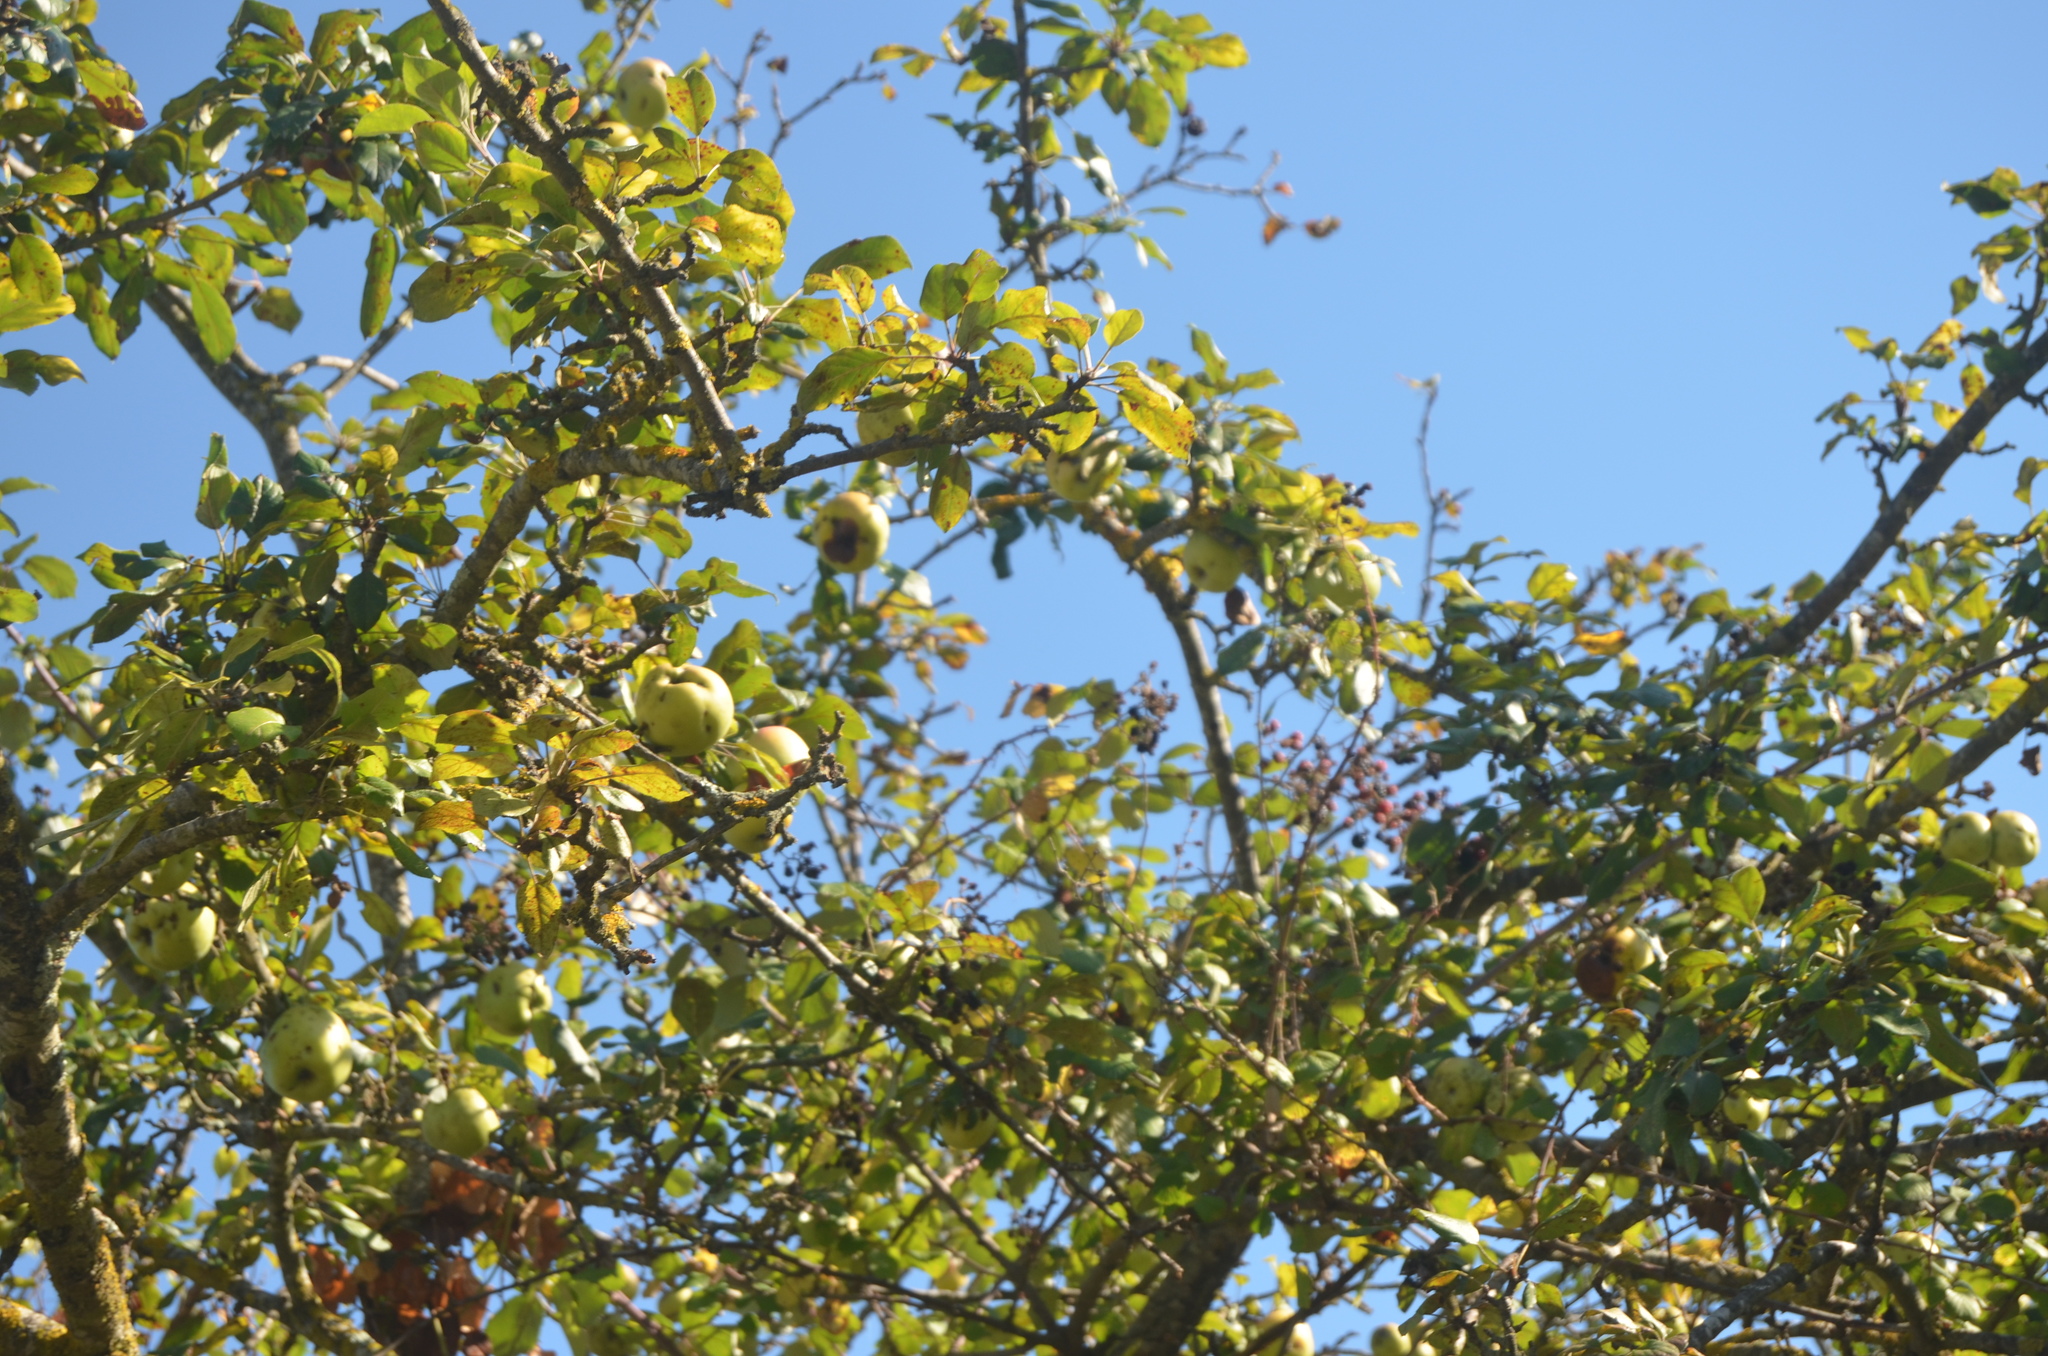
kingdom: Plantae
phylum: Tracheophyta
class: Magnoliopsida
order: Rosales
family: Rosaceae
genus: Malus
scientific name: Malus sylvestris
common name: Crab apple
